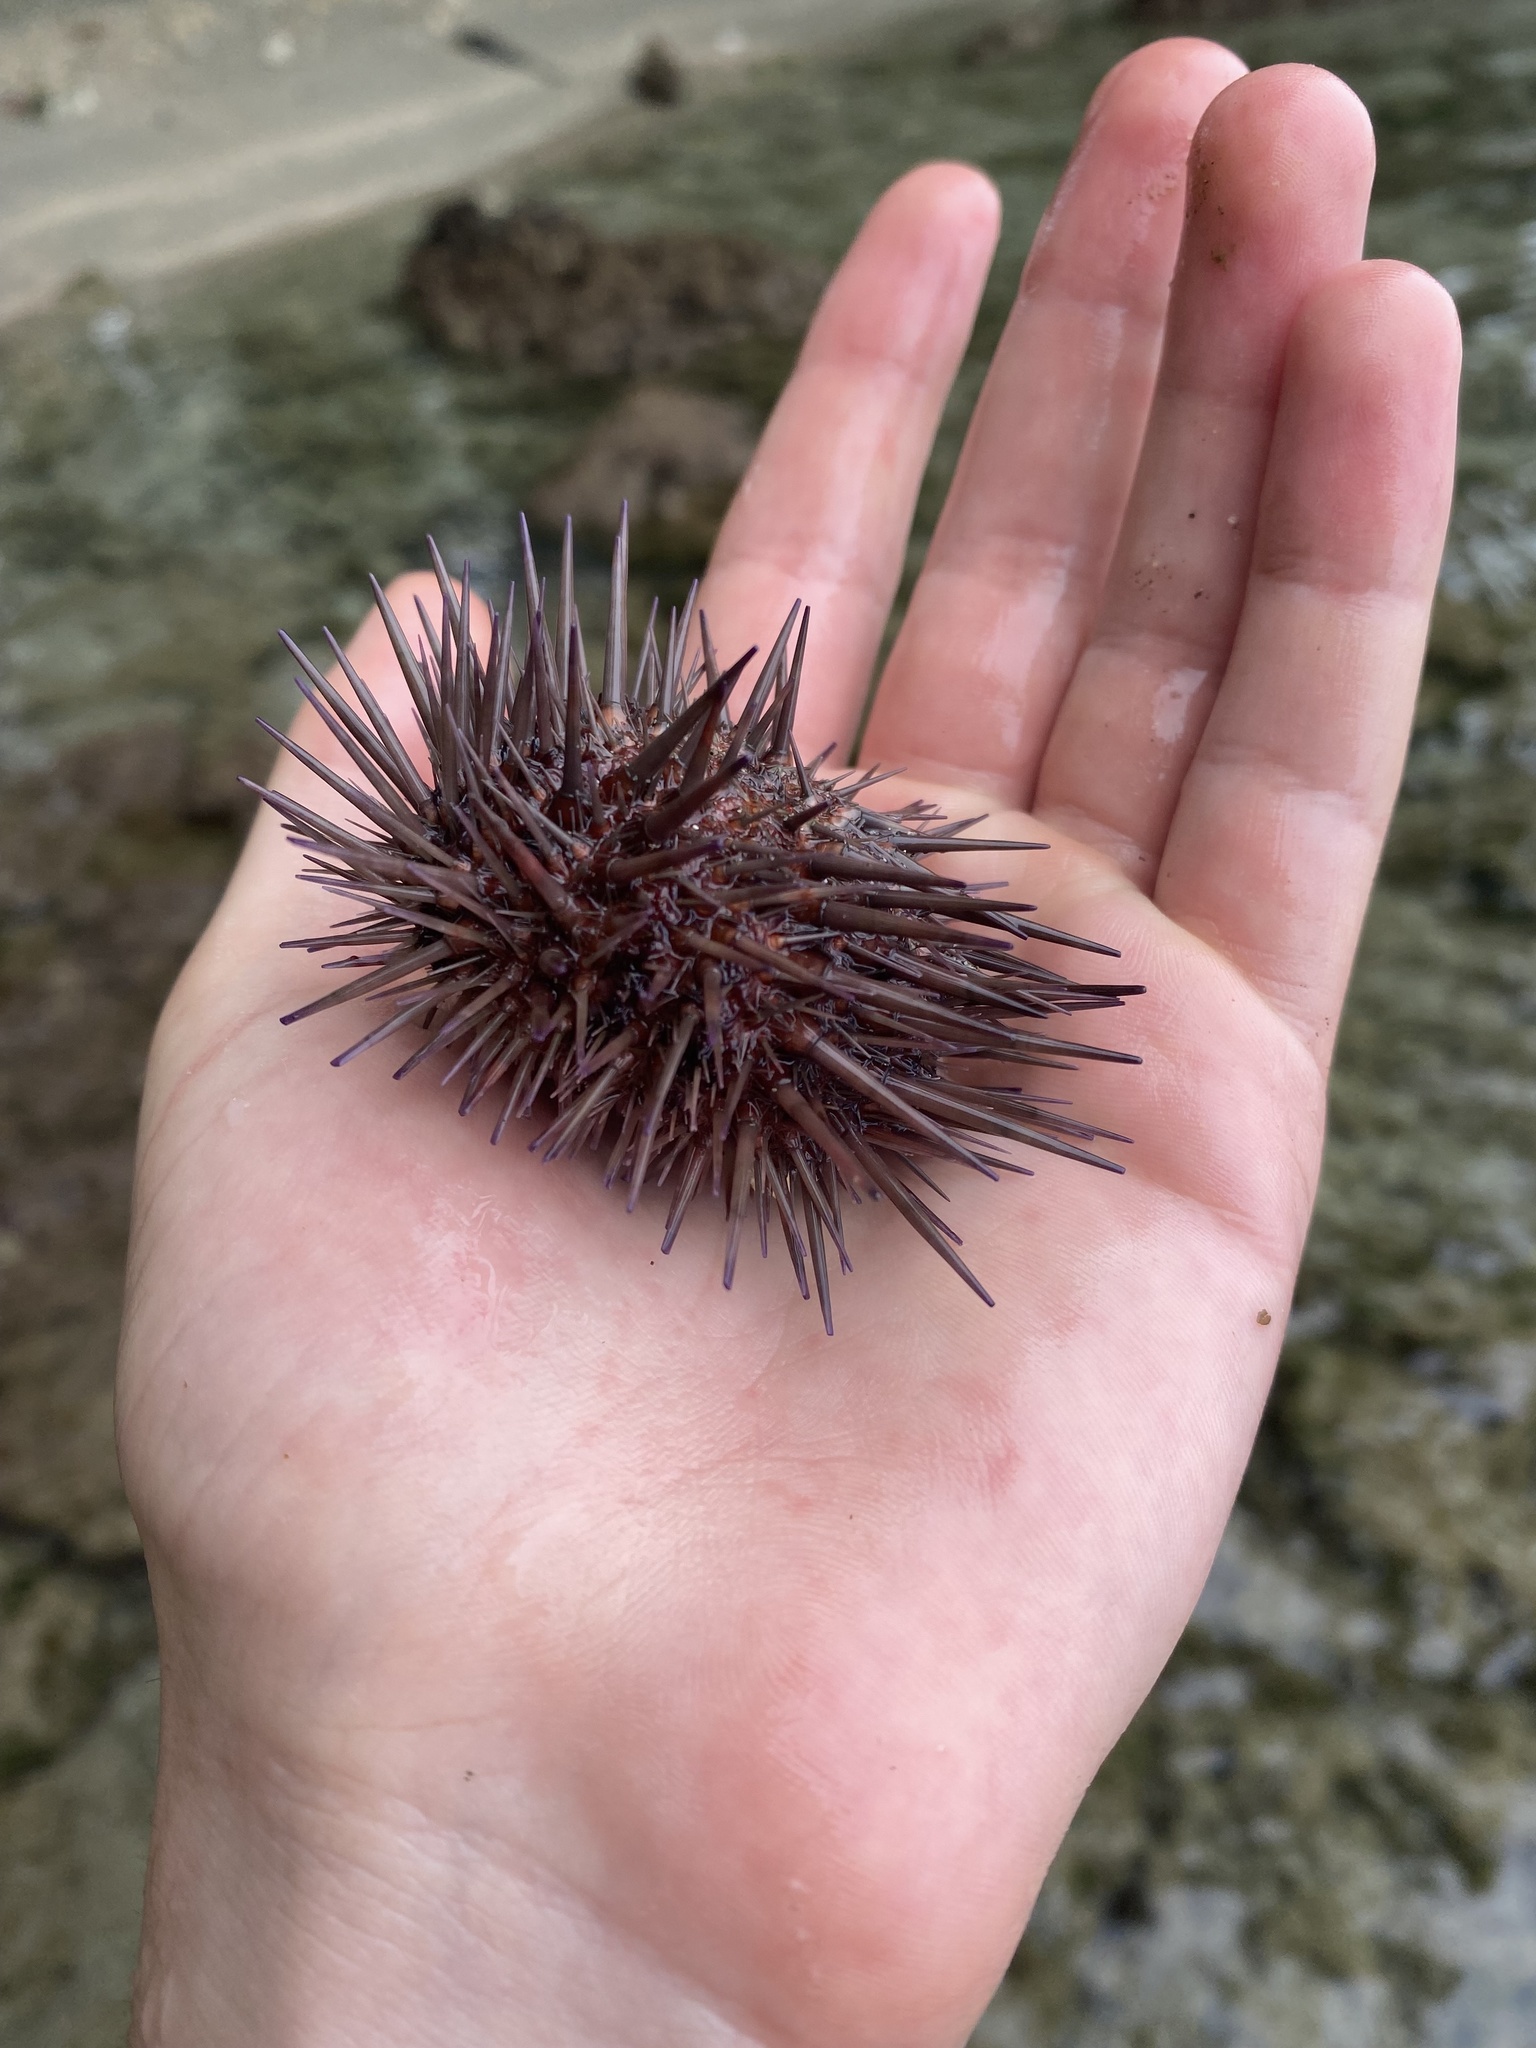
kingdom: Animalia
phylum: Echinodermata
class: Echinoidea
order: Camarodonta
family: Echinometridae
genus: Echinometra
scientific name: Echinometra lucunter
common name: Rock urchin
